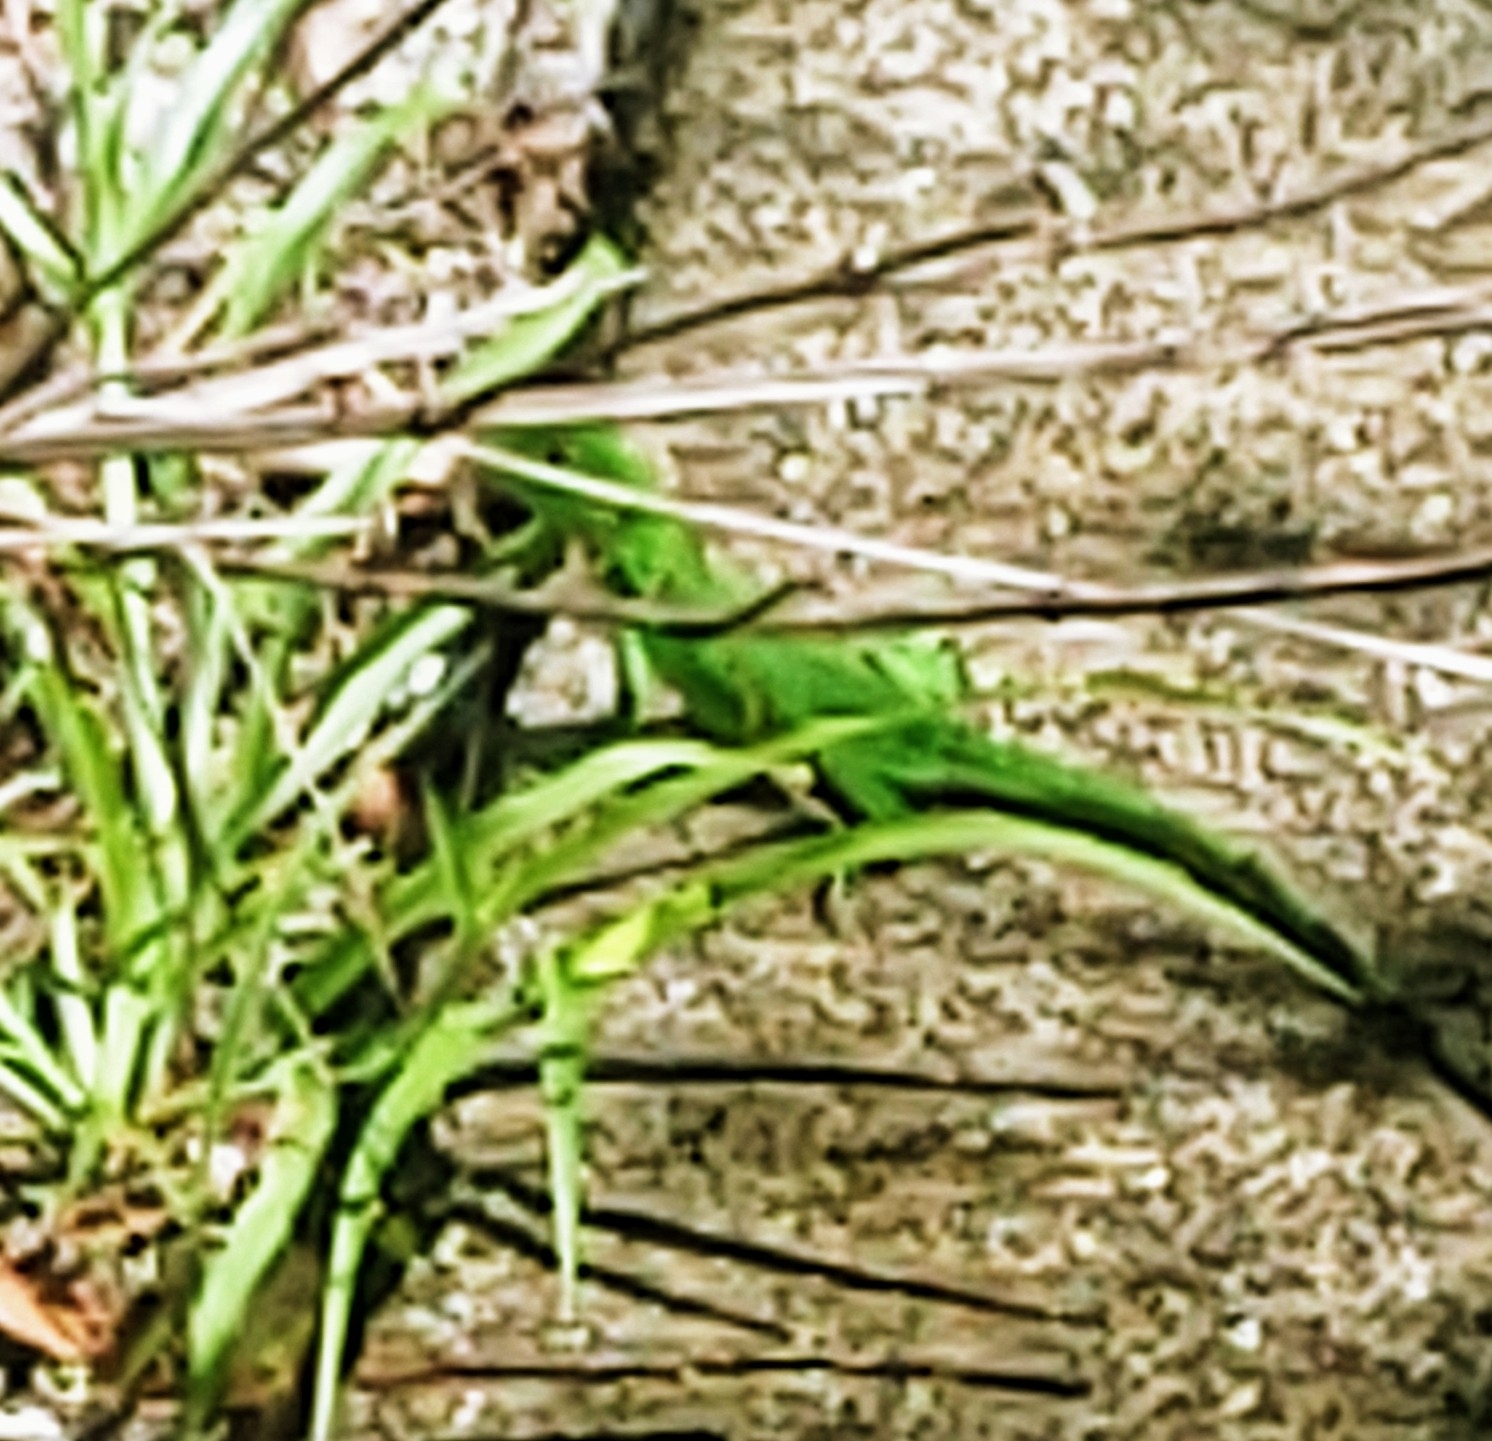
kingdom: Animalia
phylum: Chordata
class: Squamata
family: Iguanidae
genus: Iguana
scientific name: Iguana iguana
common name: Green iguana
